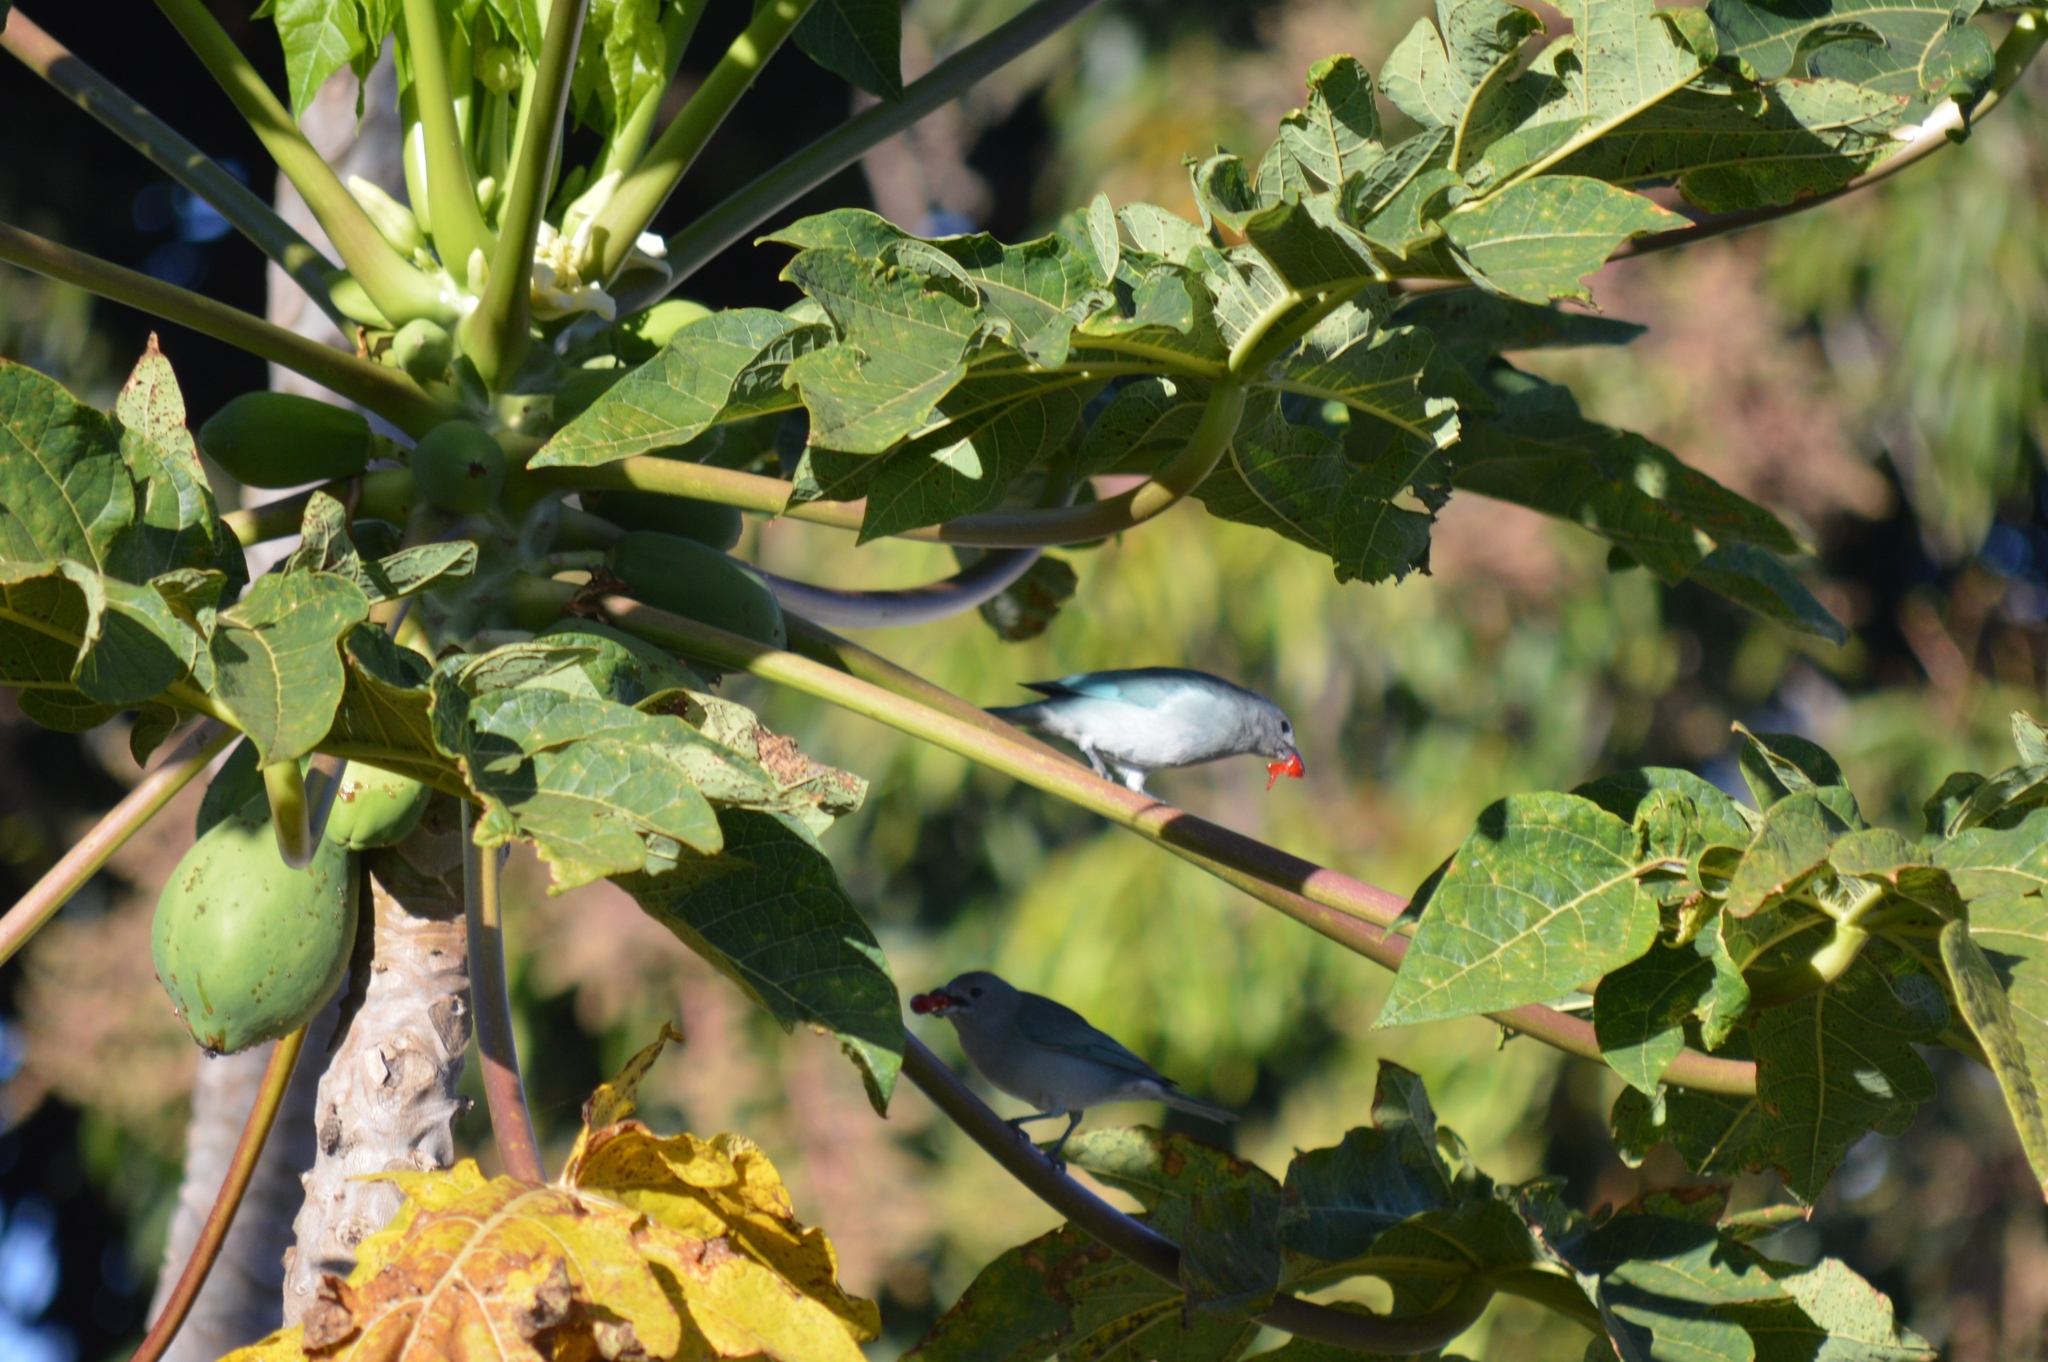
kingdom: Animalia
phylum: Chordata
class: Aves
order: Passeriformes
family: Thraupidae
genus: Thraupis
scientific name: Thraupis sayaca
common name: Sayaca tanager
